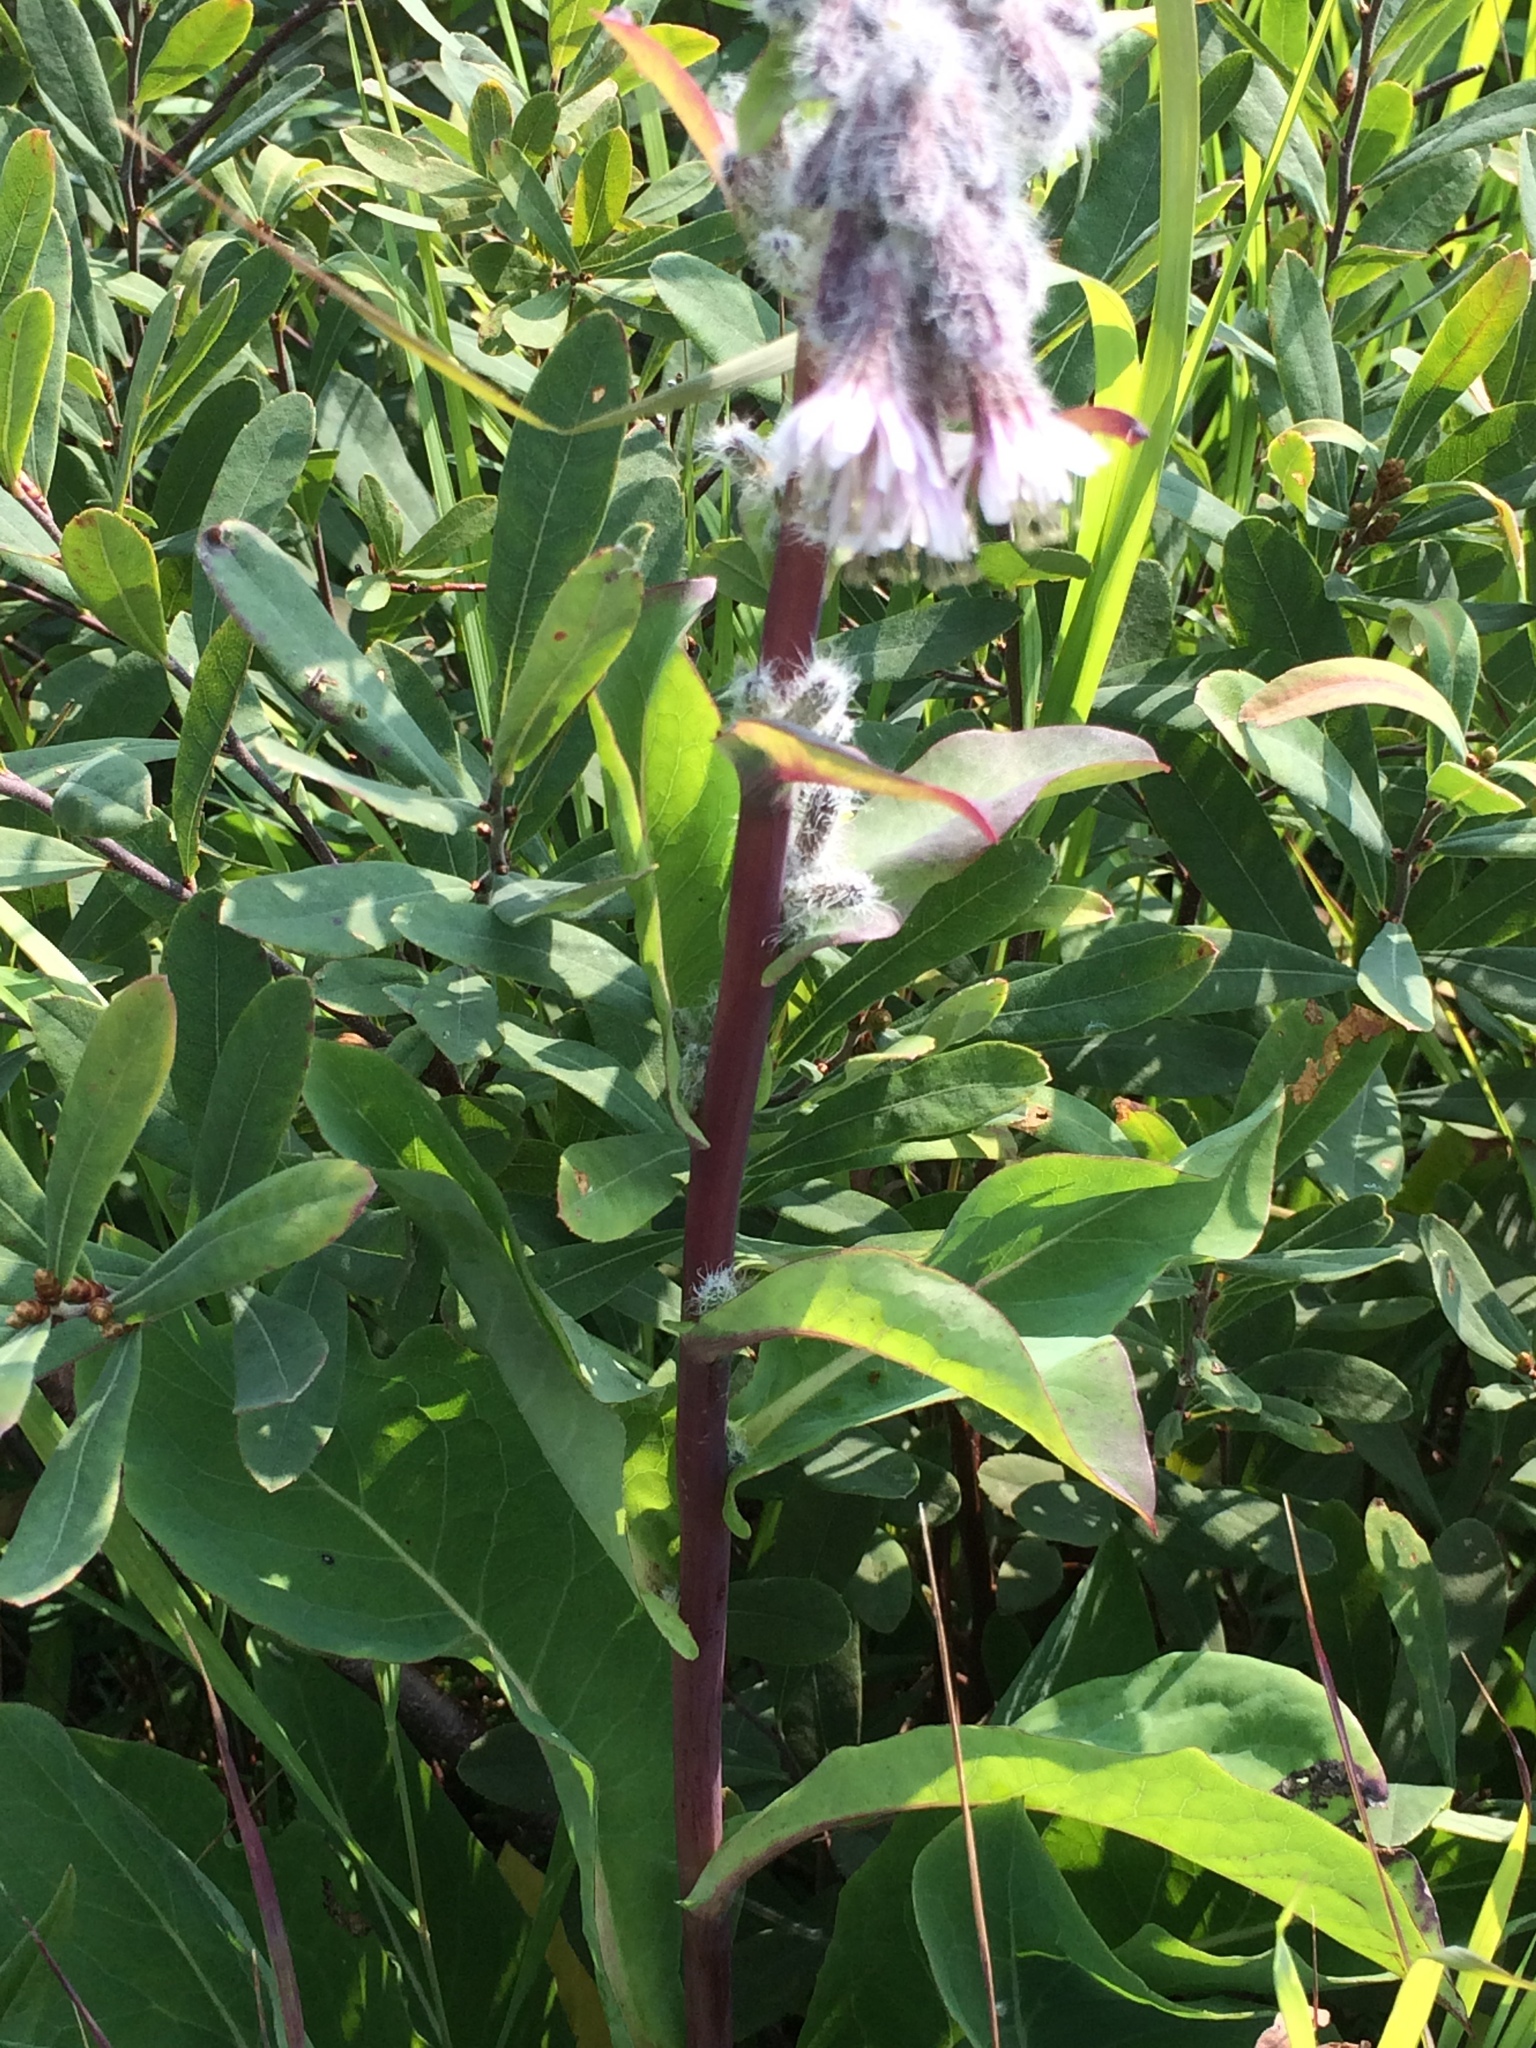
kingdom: Plantae
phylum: Tracheophyta
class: Magnoliopsida
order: Asterales
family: Asteraceae
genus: Nabalus
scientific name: Nabalus racemosus
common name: Glaucous white lettuce
